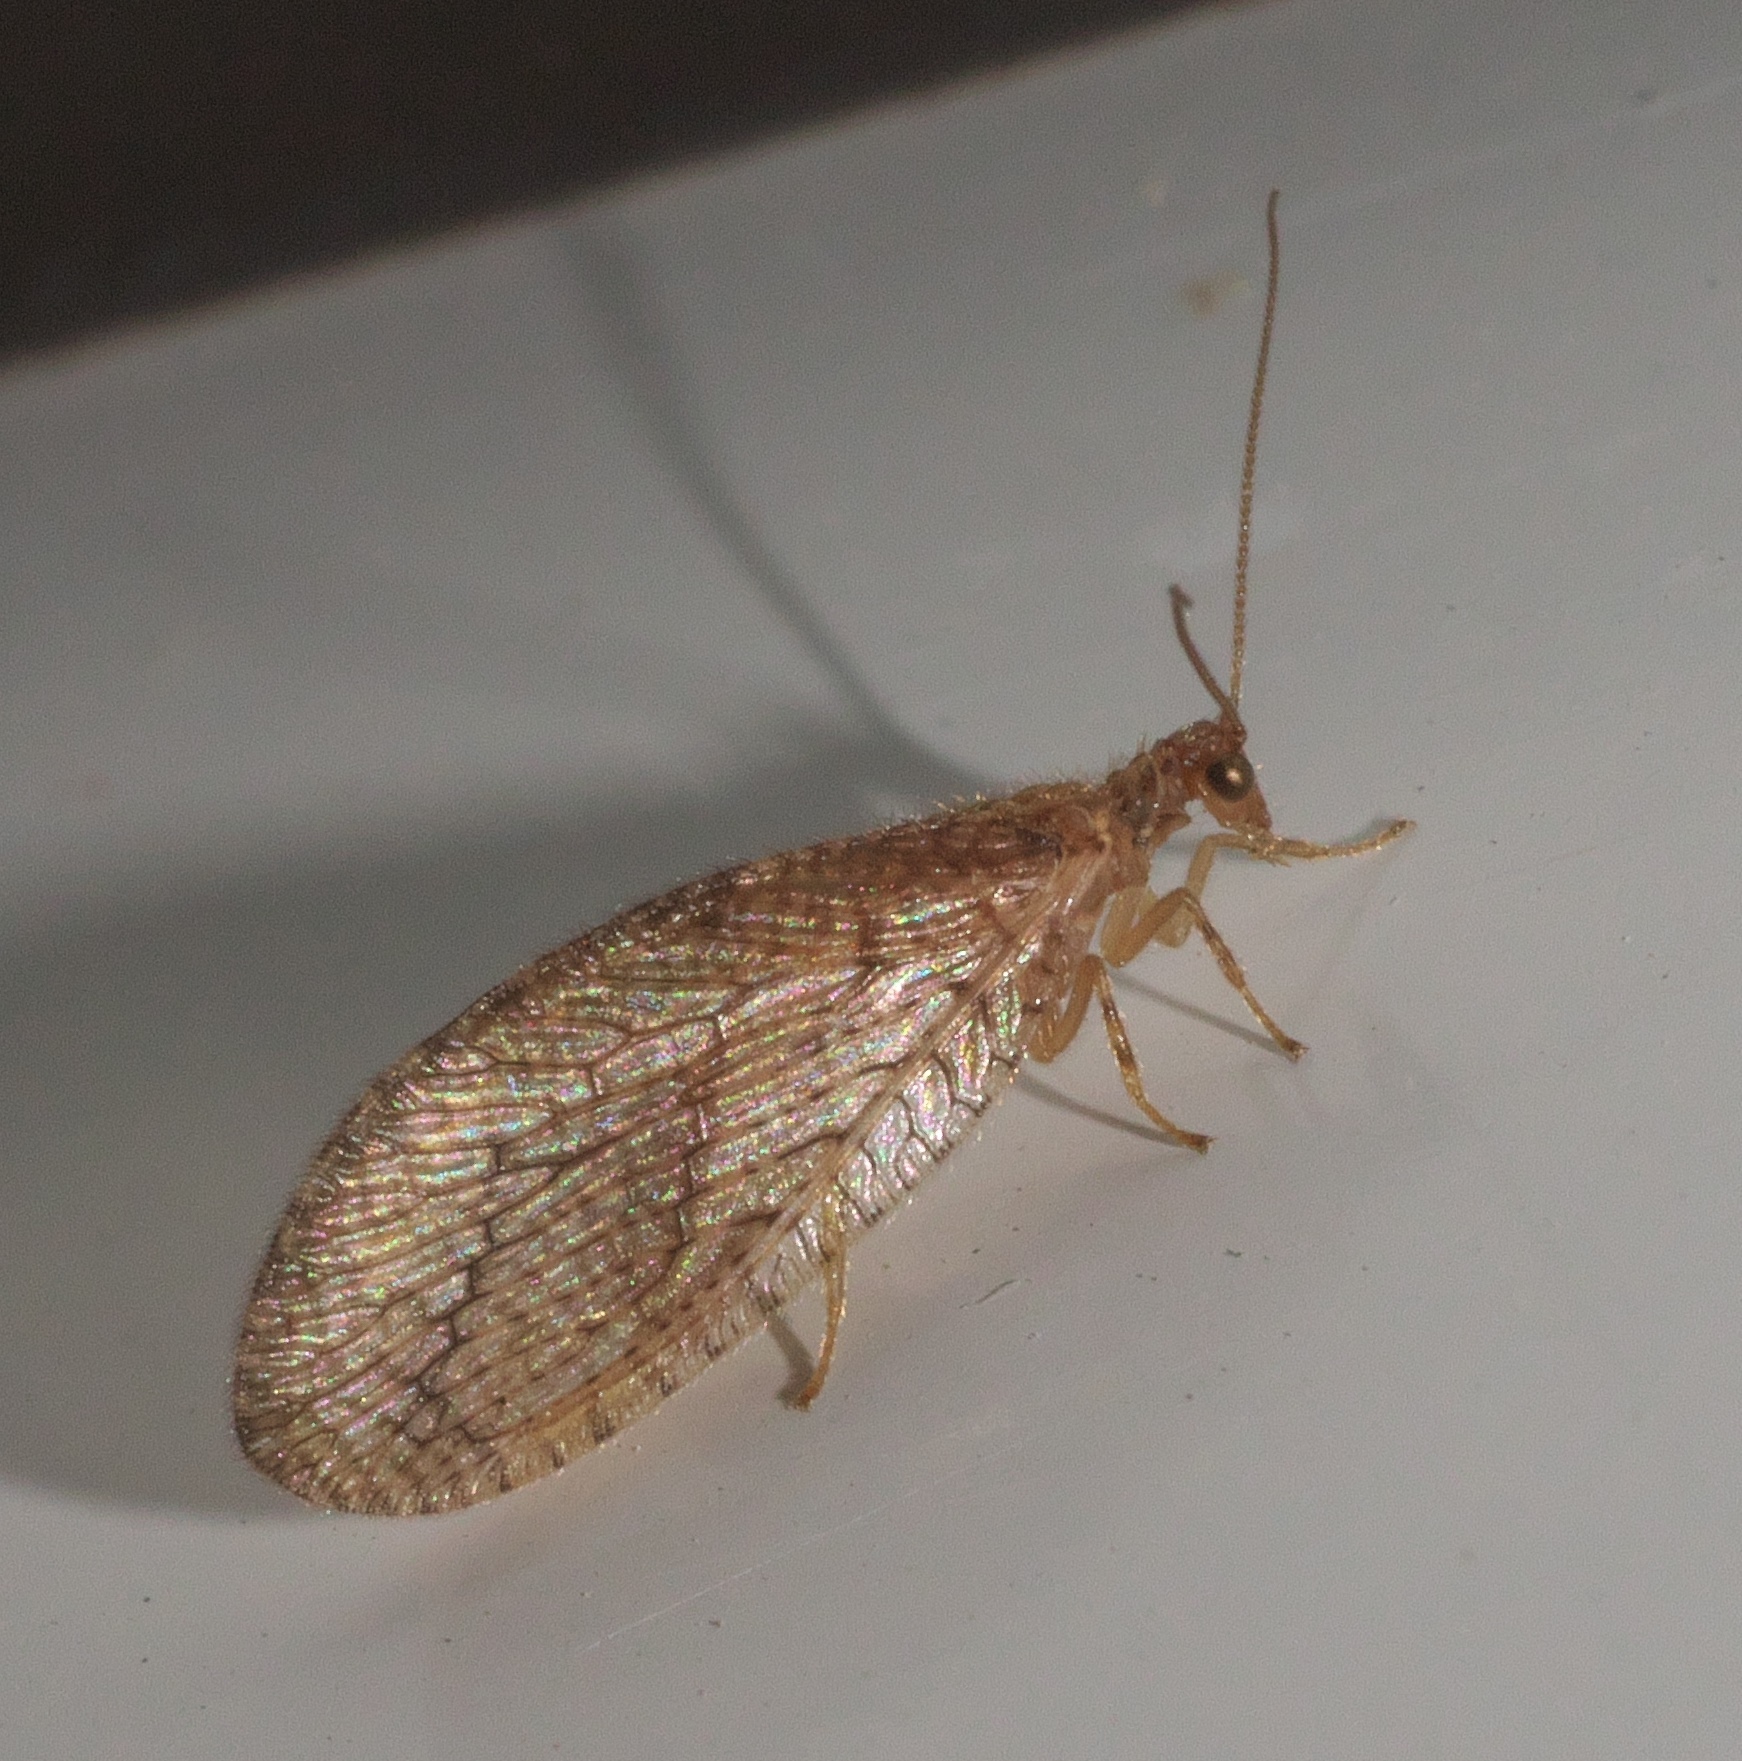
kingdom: Animalia
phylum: Arthropoda
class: Insecta
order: Neuroptera
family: Hemerobiidae
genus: Micromus
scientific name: Micromus posticus
